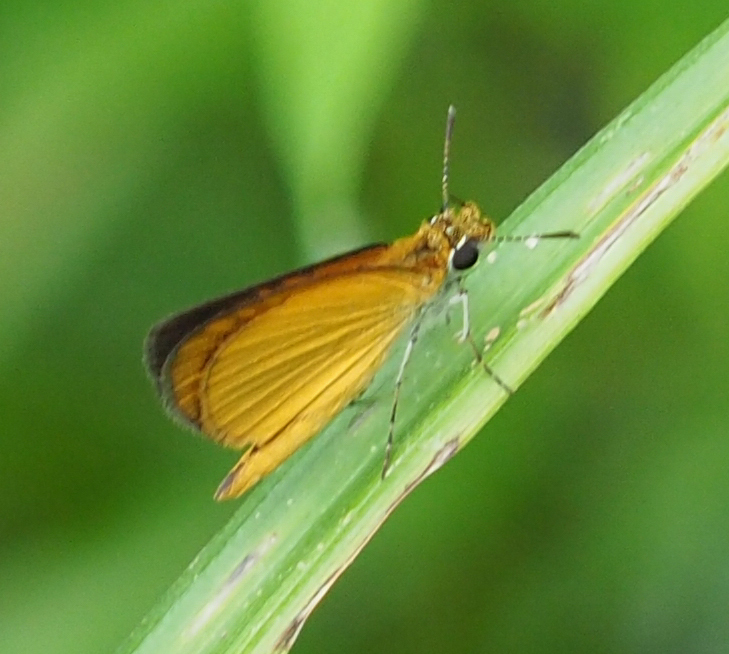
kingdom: Animalia
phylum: Arthropoda
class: Insecta
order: Lepidoptera
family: Hesperiidae
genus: Ancyloxypha
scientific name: Ancyloxypha numitor
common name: Least skipper
